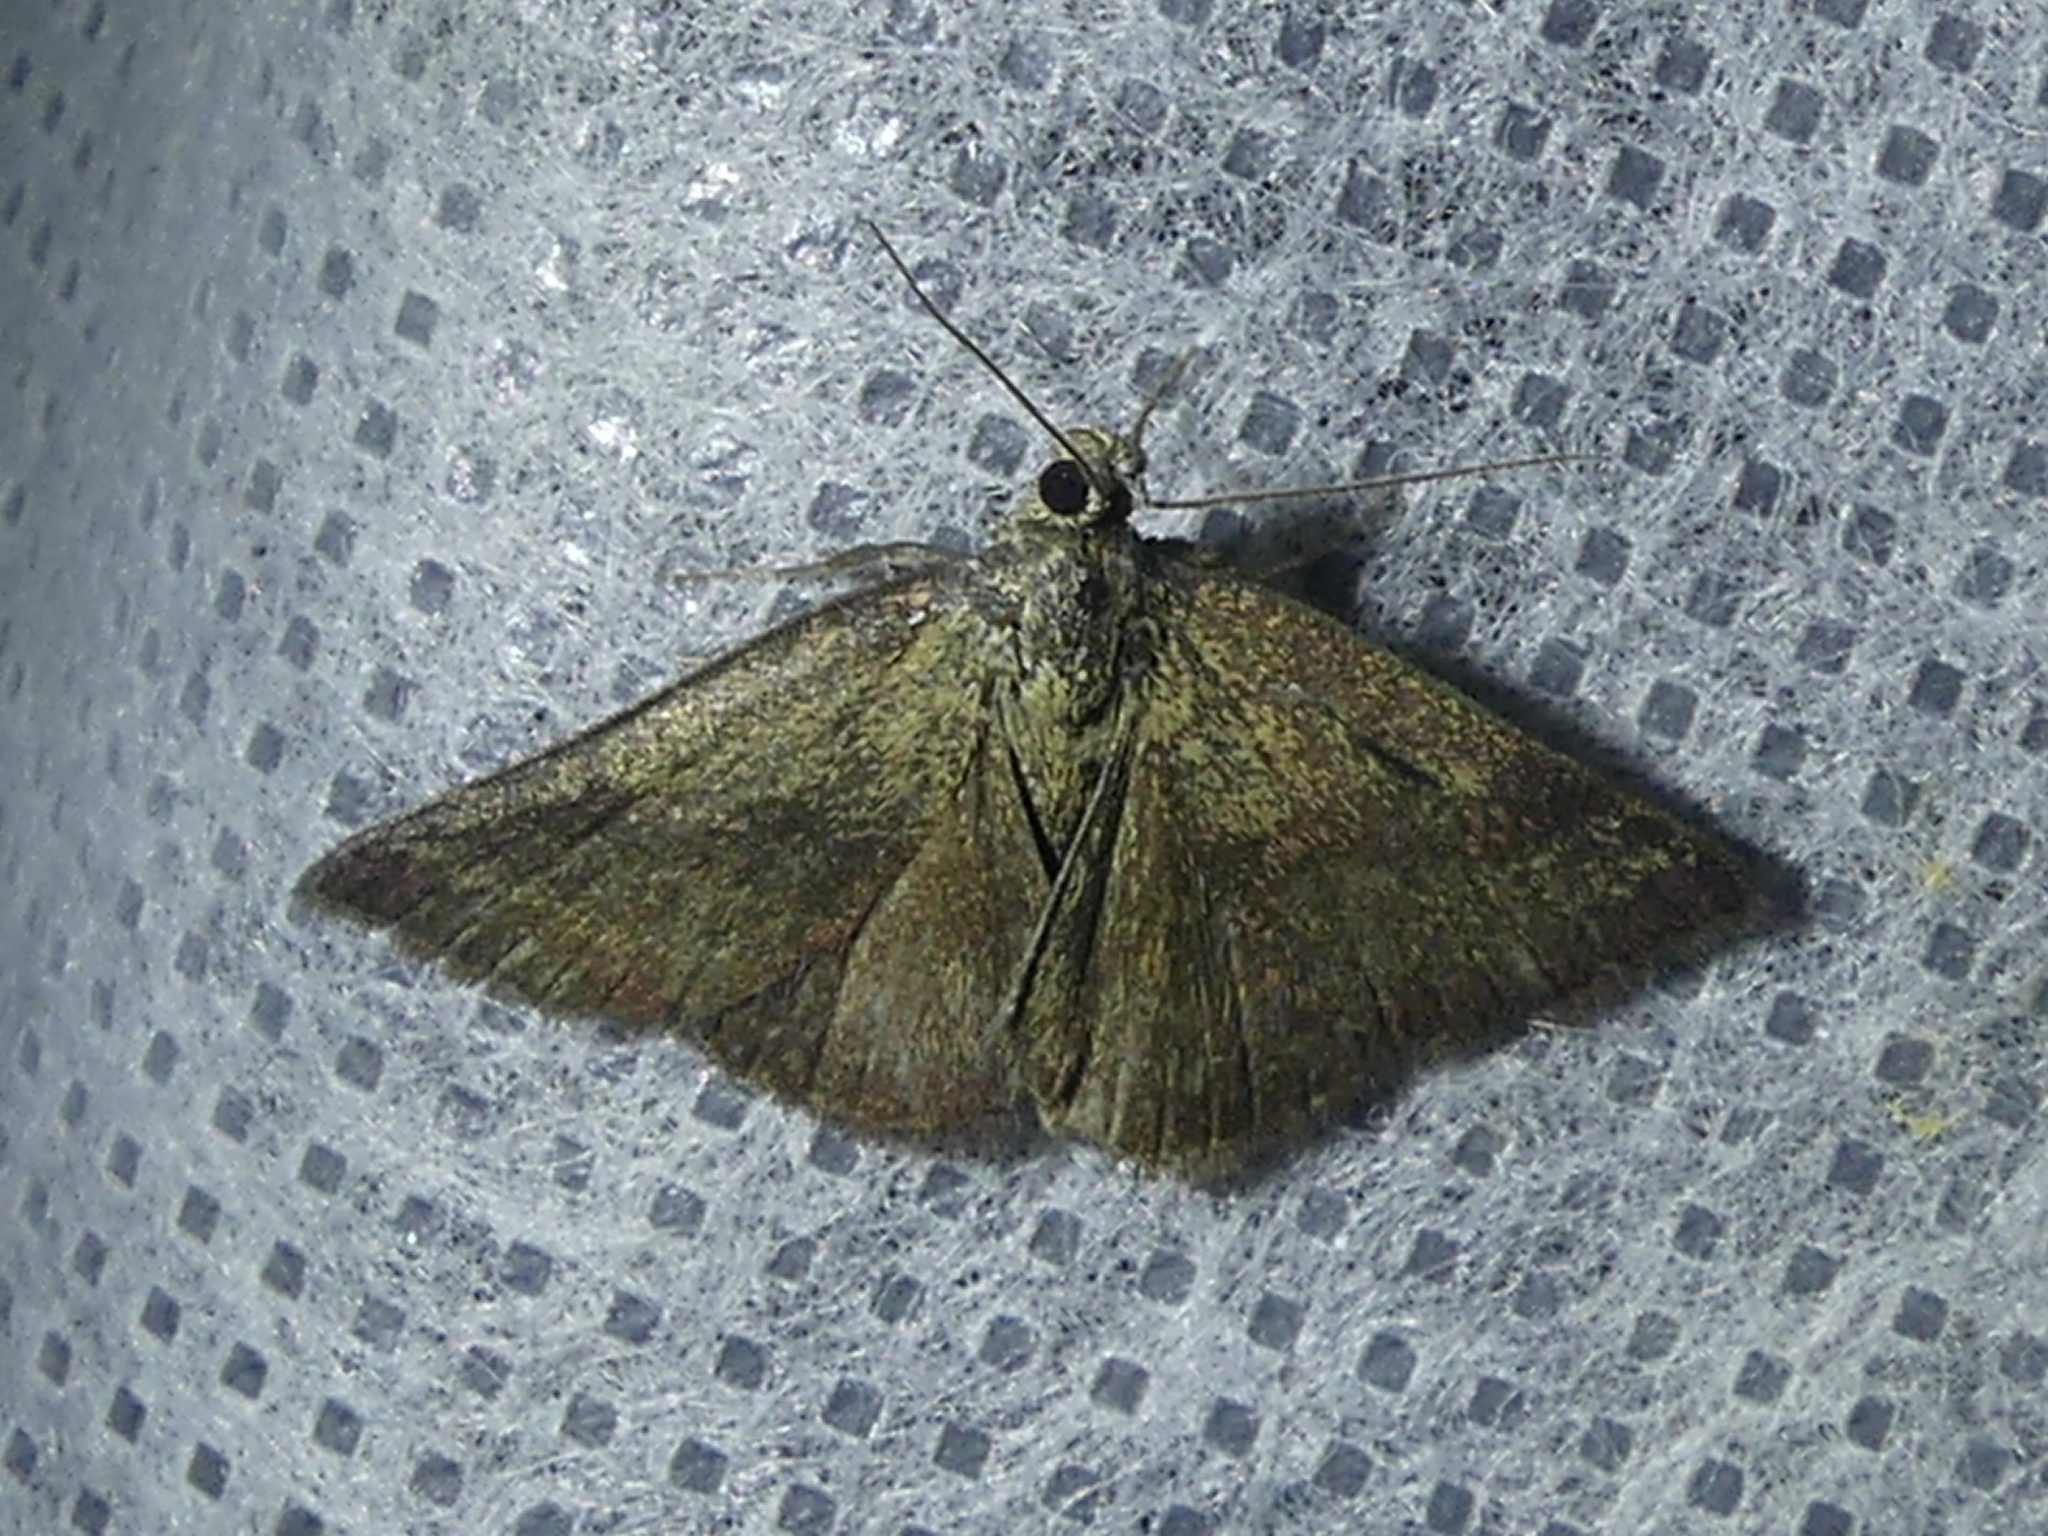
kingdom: Animalia
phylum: Arthropoda
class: Insecta
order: Lepidoptera
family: Erebidae
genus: Phytometra
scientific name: Phytometra viridaria
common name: Small purple-barred
